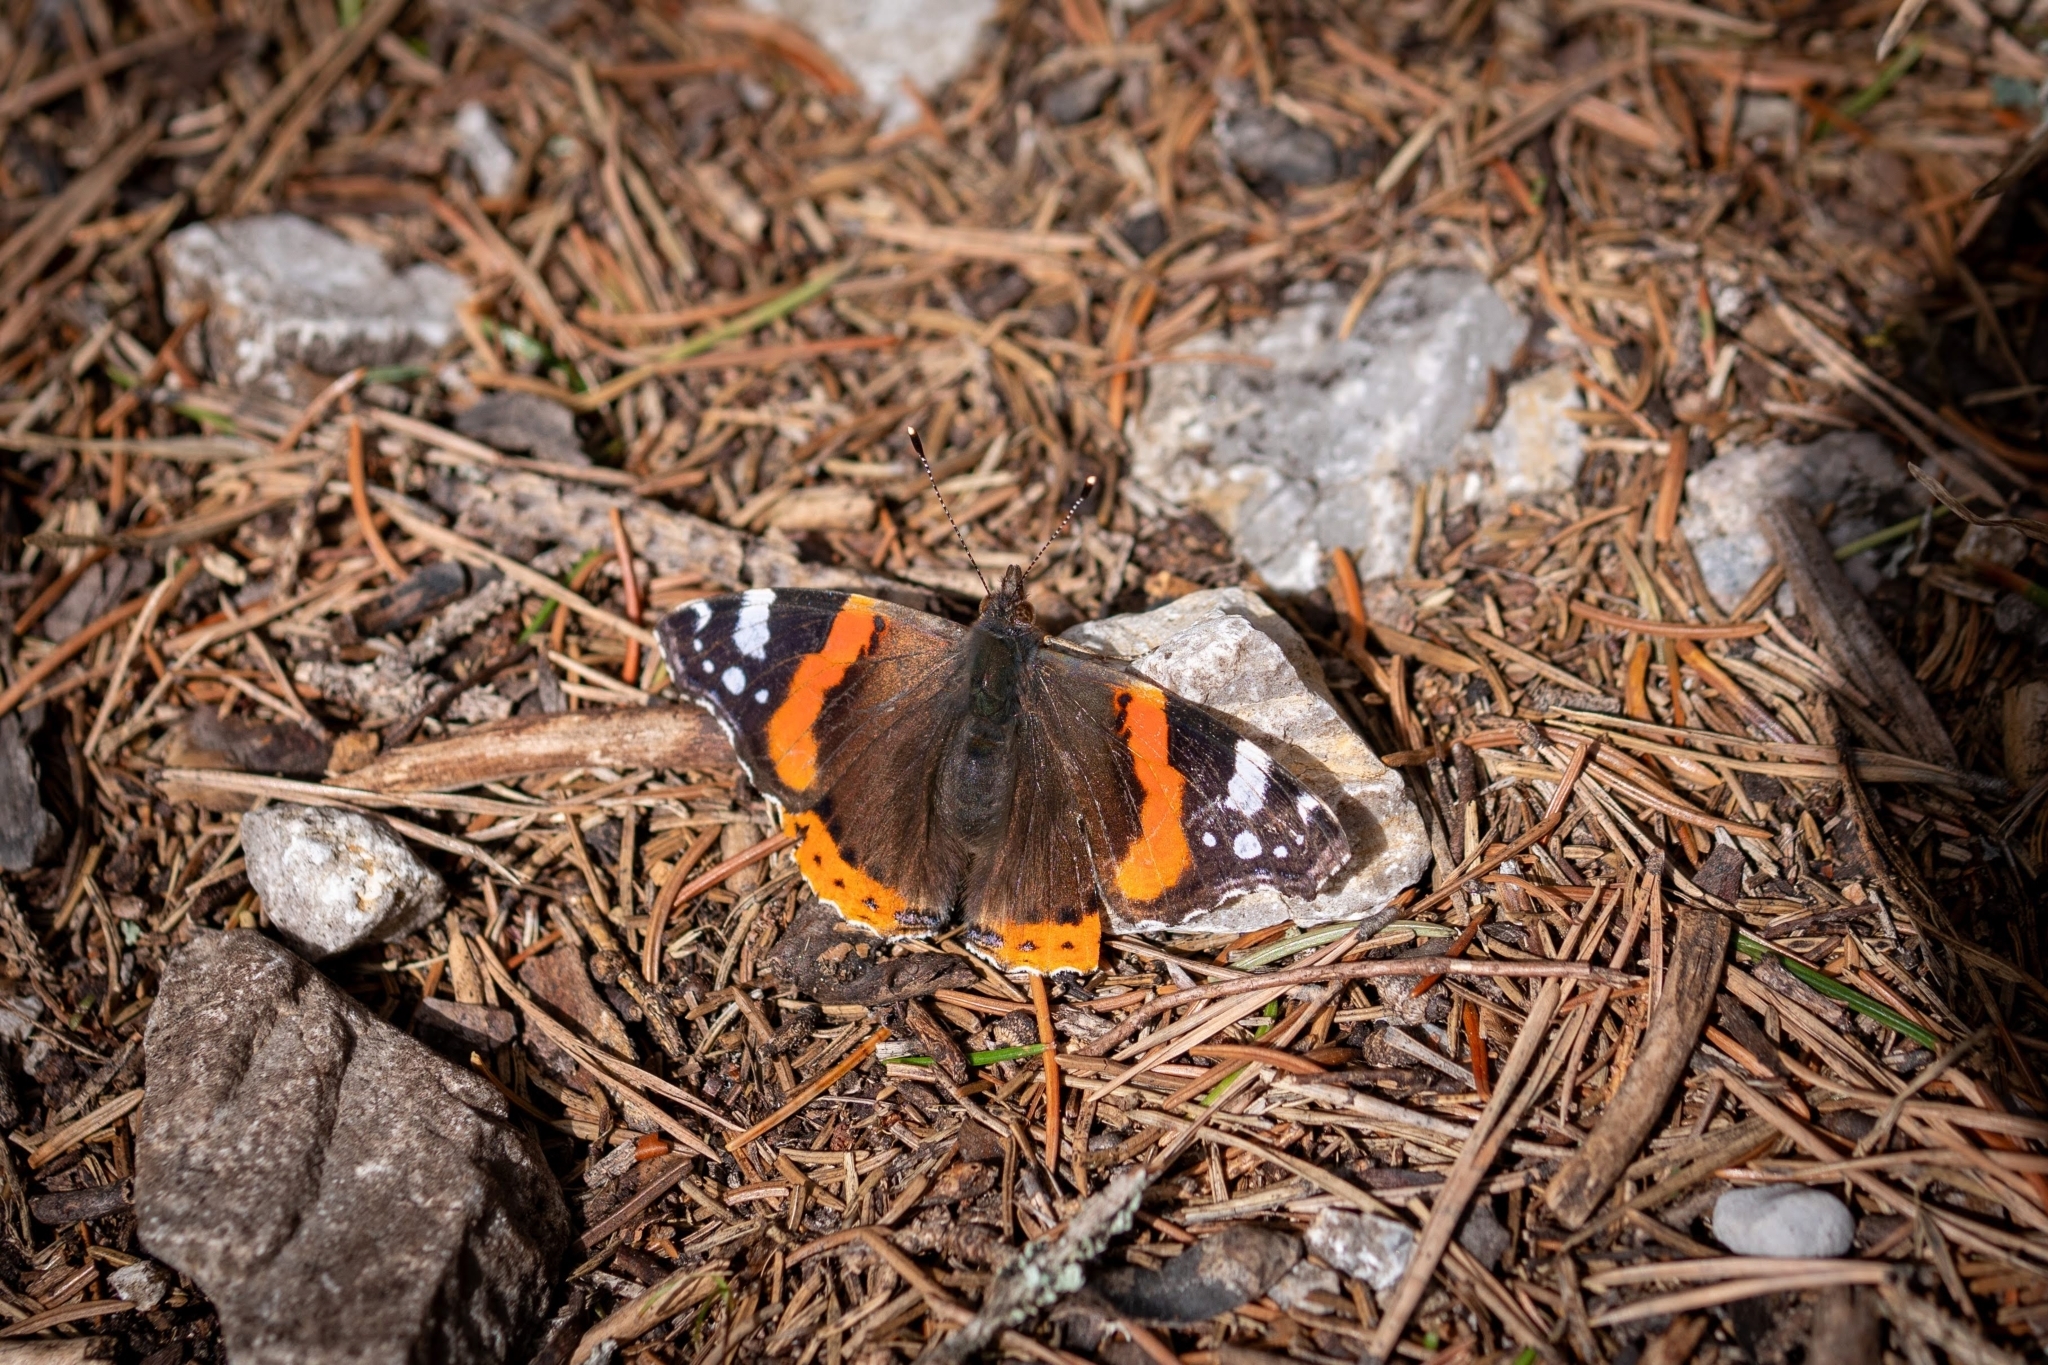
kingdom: Animalia
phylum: Arthropoda
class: Insecta
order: Lepidoptera
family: Nymphalidae
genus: Vanessa
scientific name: Vanessa atalanta
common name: Red admiral
